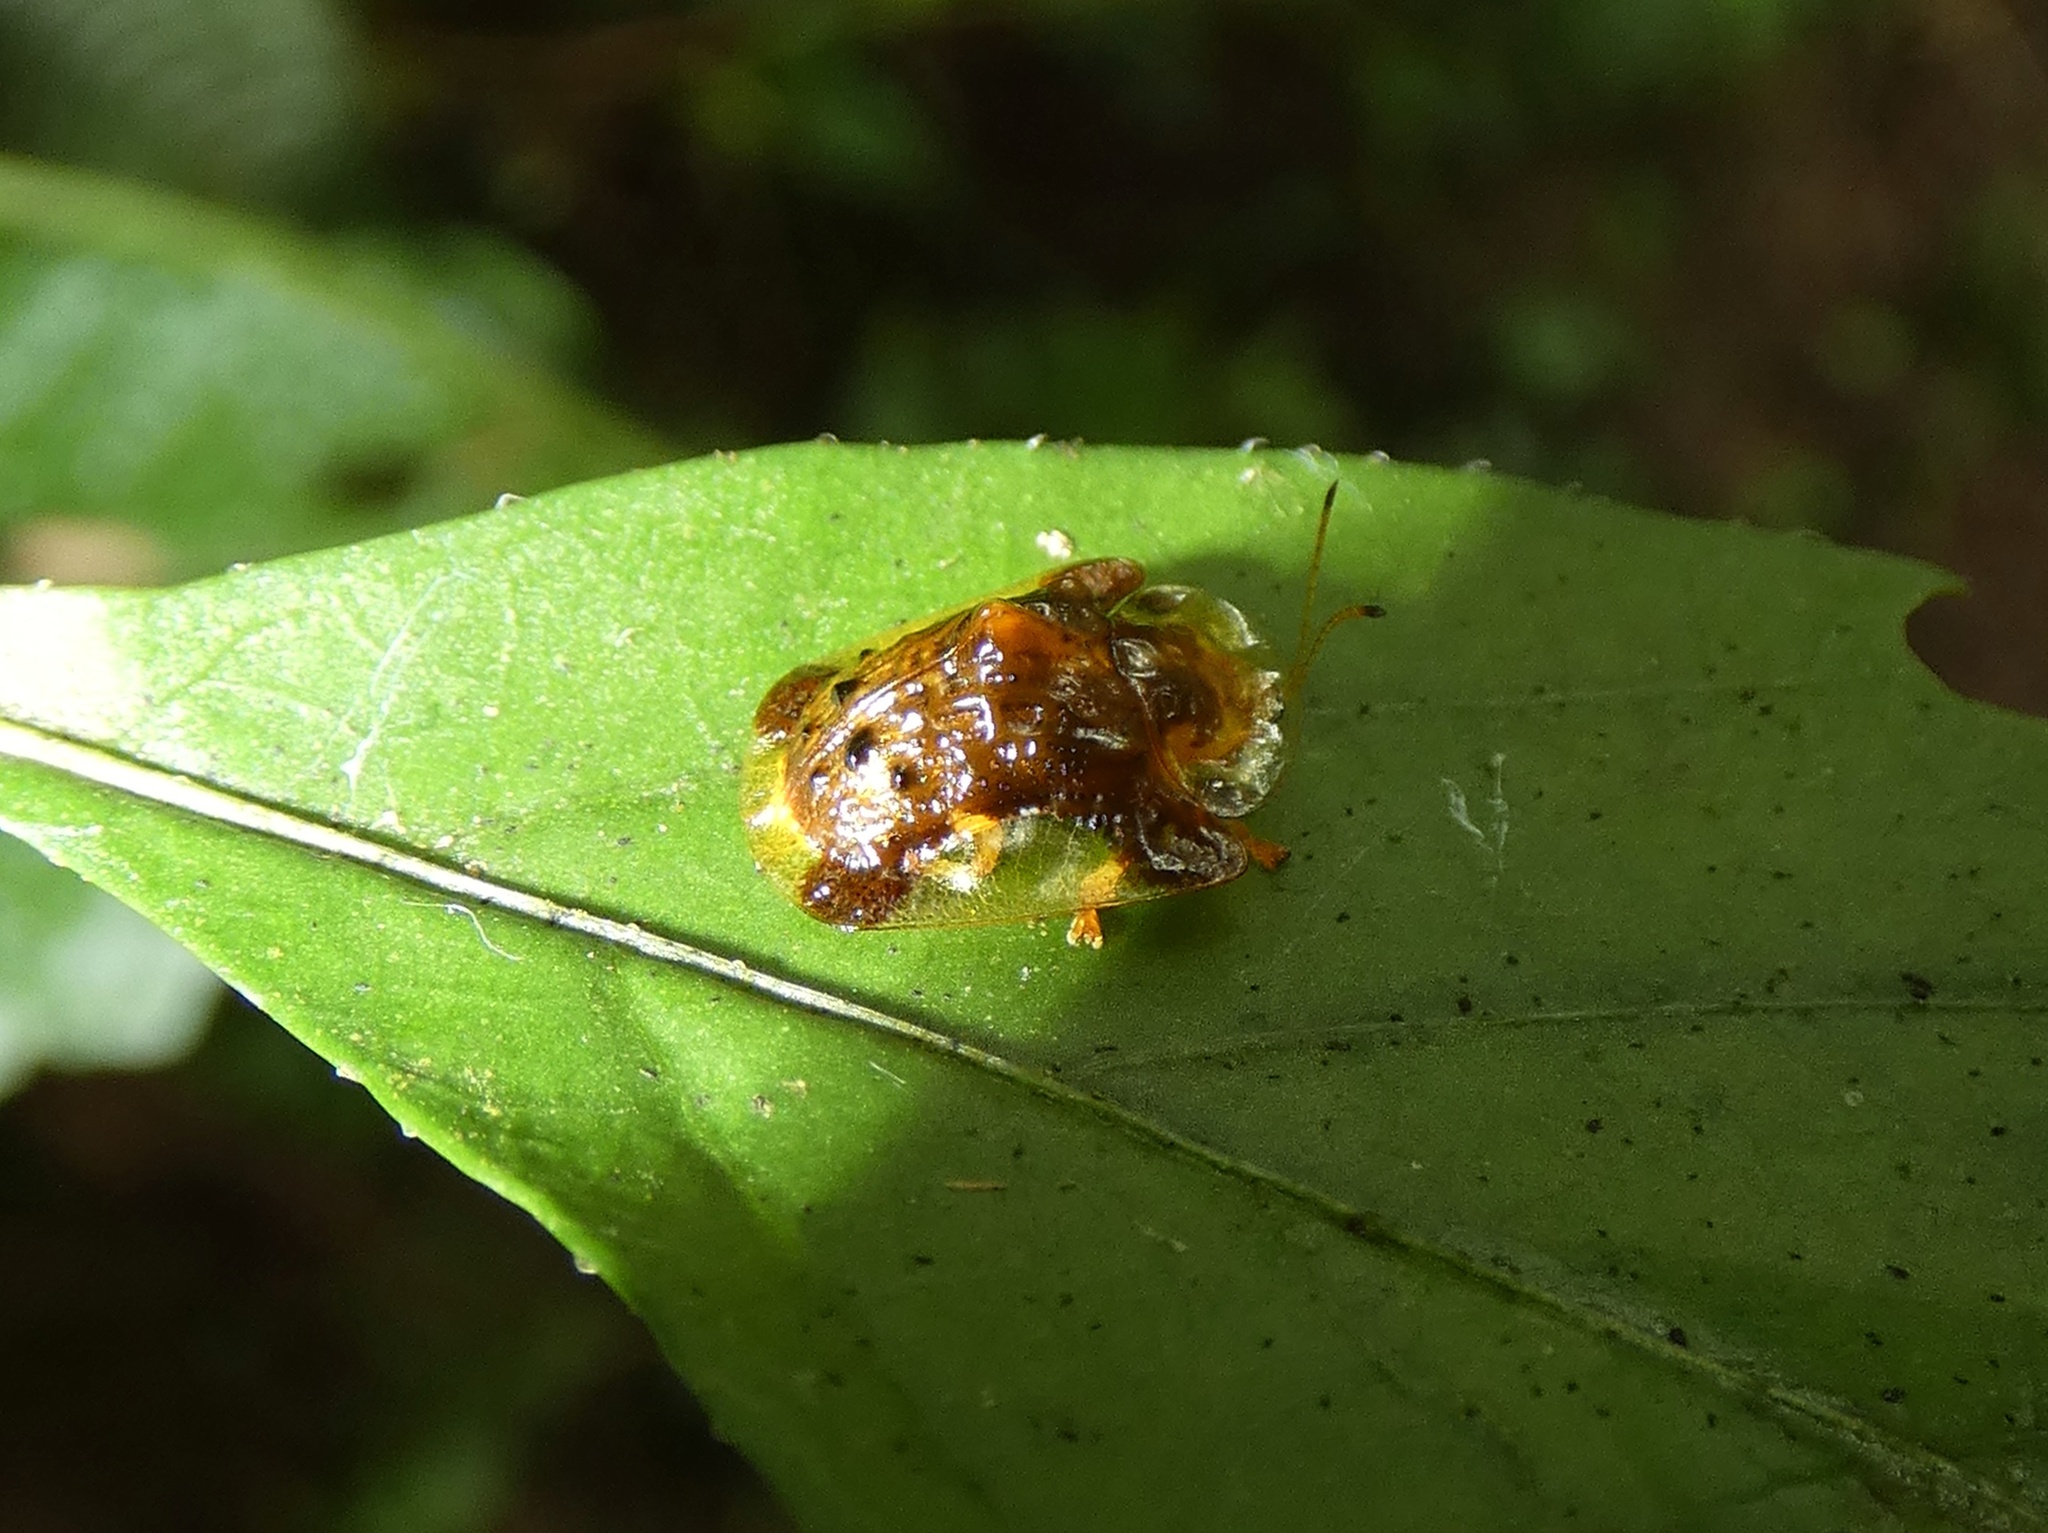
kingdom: Animalia
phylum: Arthropoda
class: Insecta
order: Coleoptera
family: Chrysomelidae
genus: Helocassis
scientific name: Helocassis testudinaria
